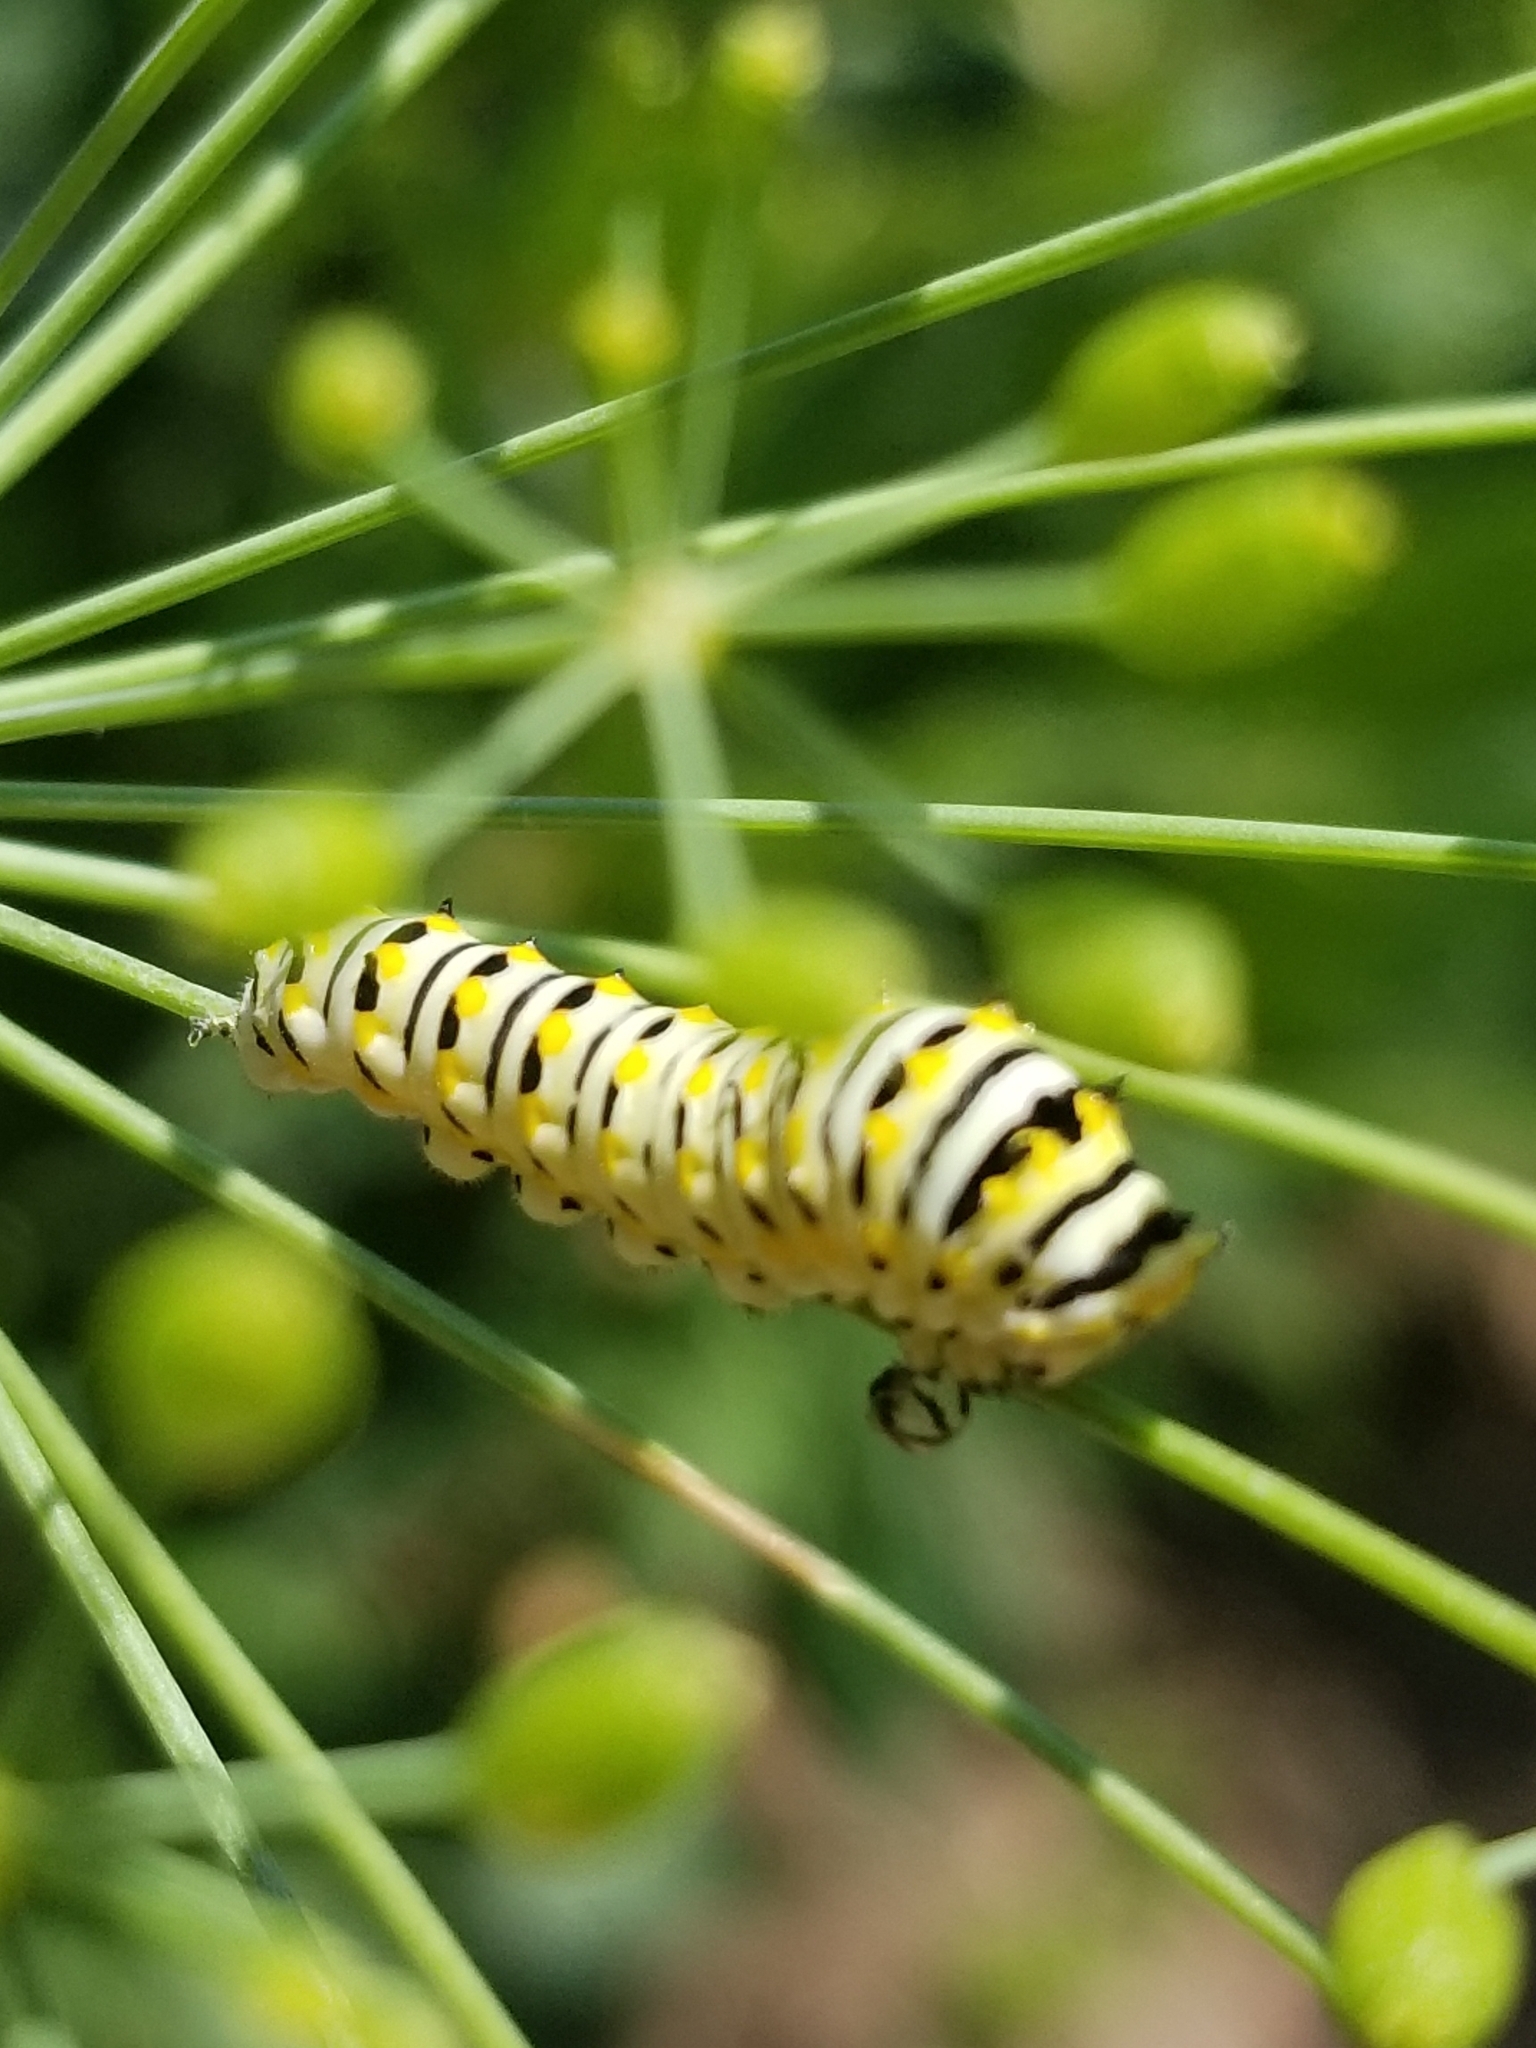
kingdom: Animalia
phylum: Arthropoda
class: Insecta
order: Lepidoptera
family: Papilionidae
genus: Papilio
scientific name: Papilio polyxenes
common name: Black swallowtail
